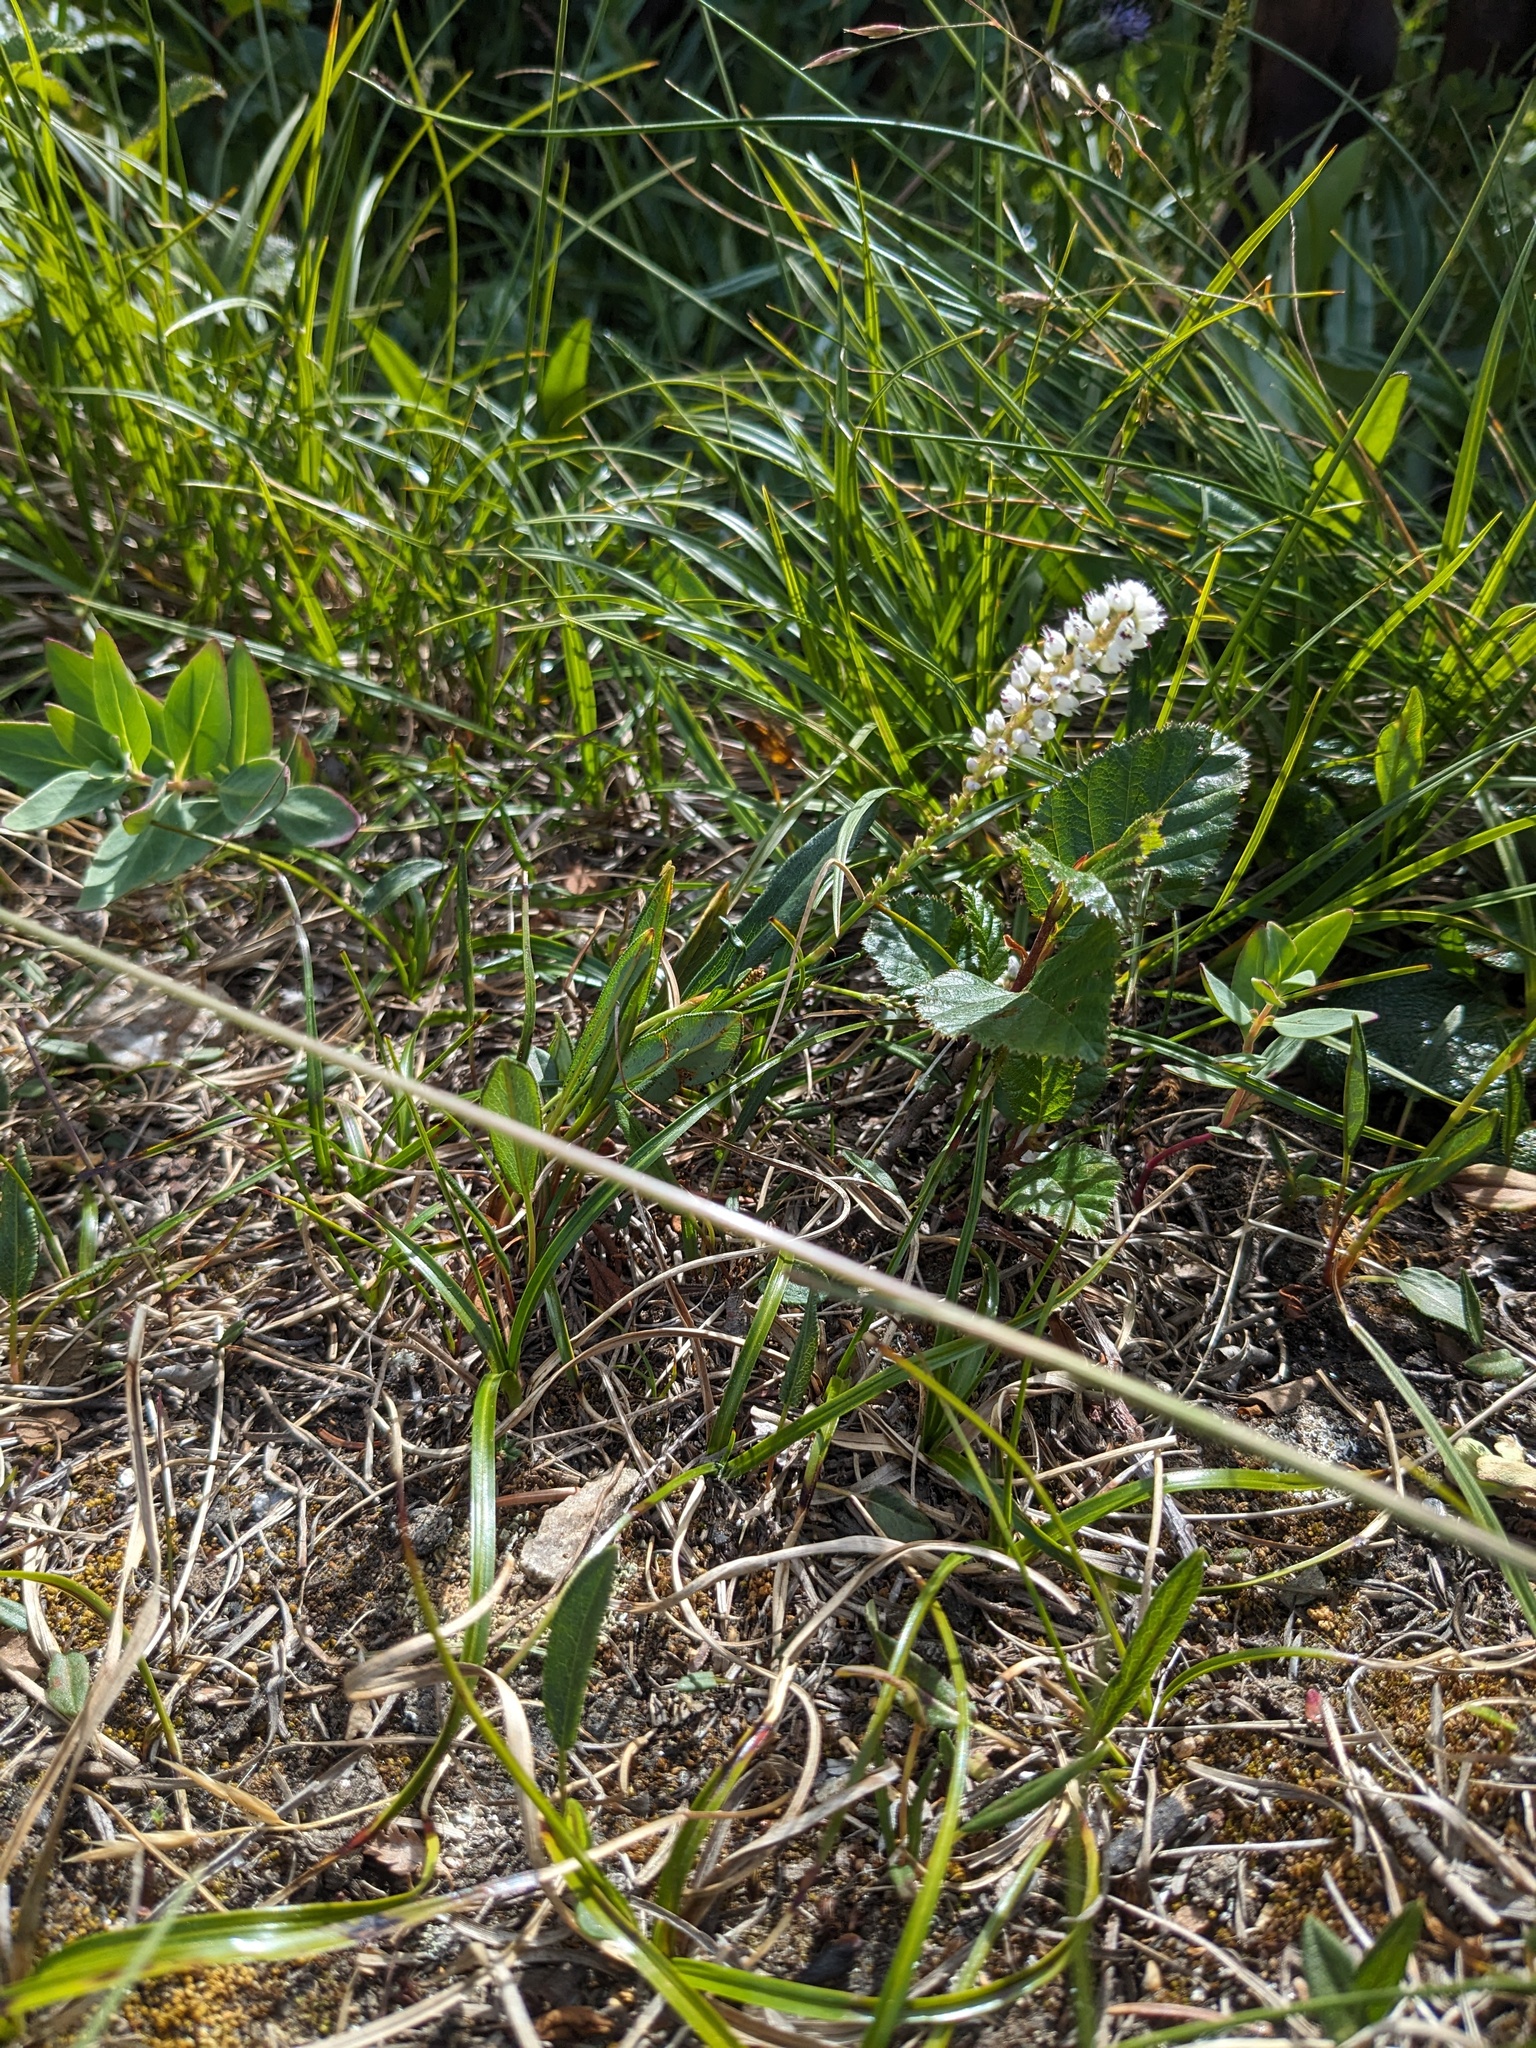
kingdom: Plantae
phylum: Tracheophyta
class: Magnoliopsida
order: Caryophyllales
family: Polygonaceae
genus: Bistorta
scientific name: Bistorta vivipara
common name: Alpine bistort
